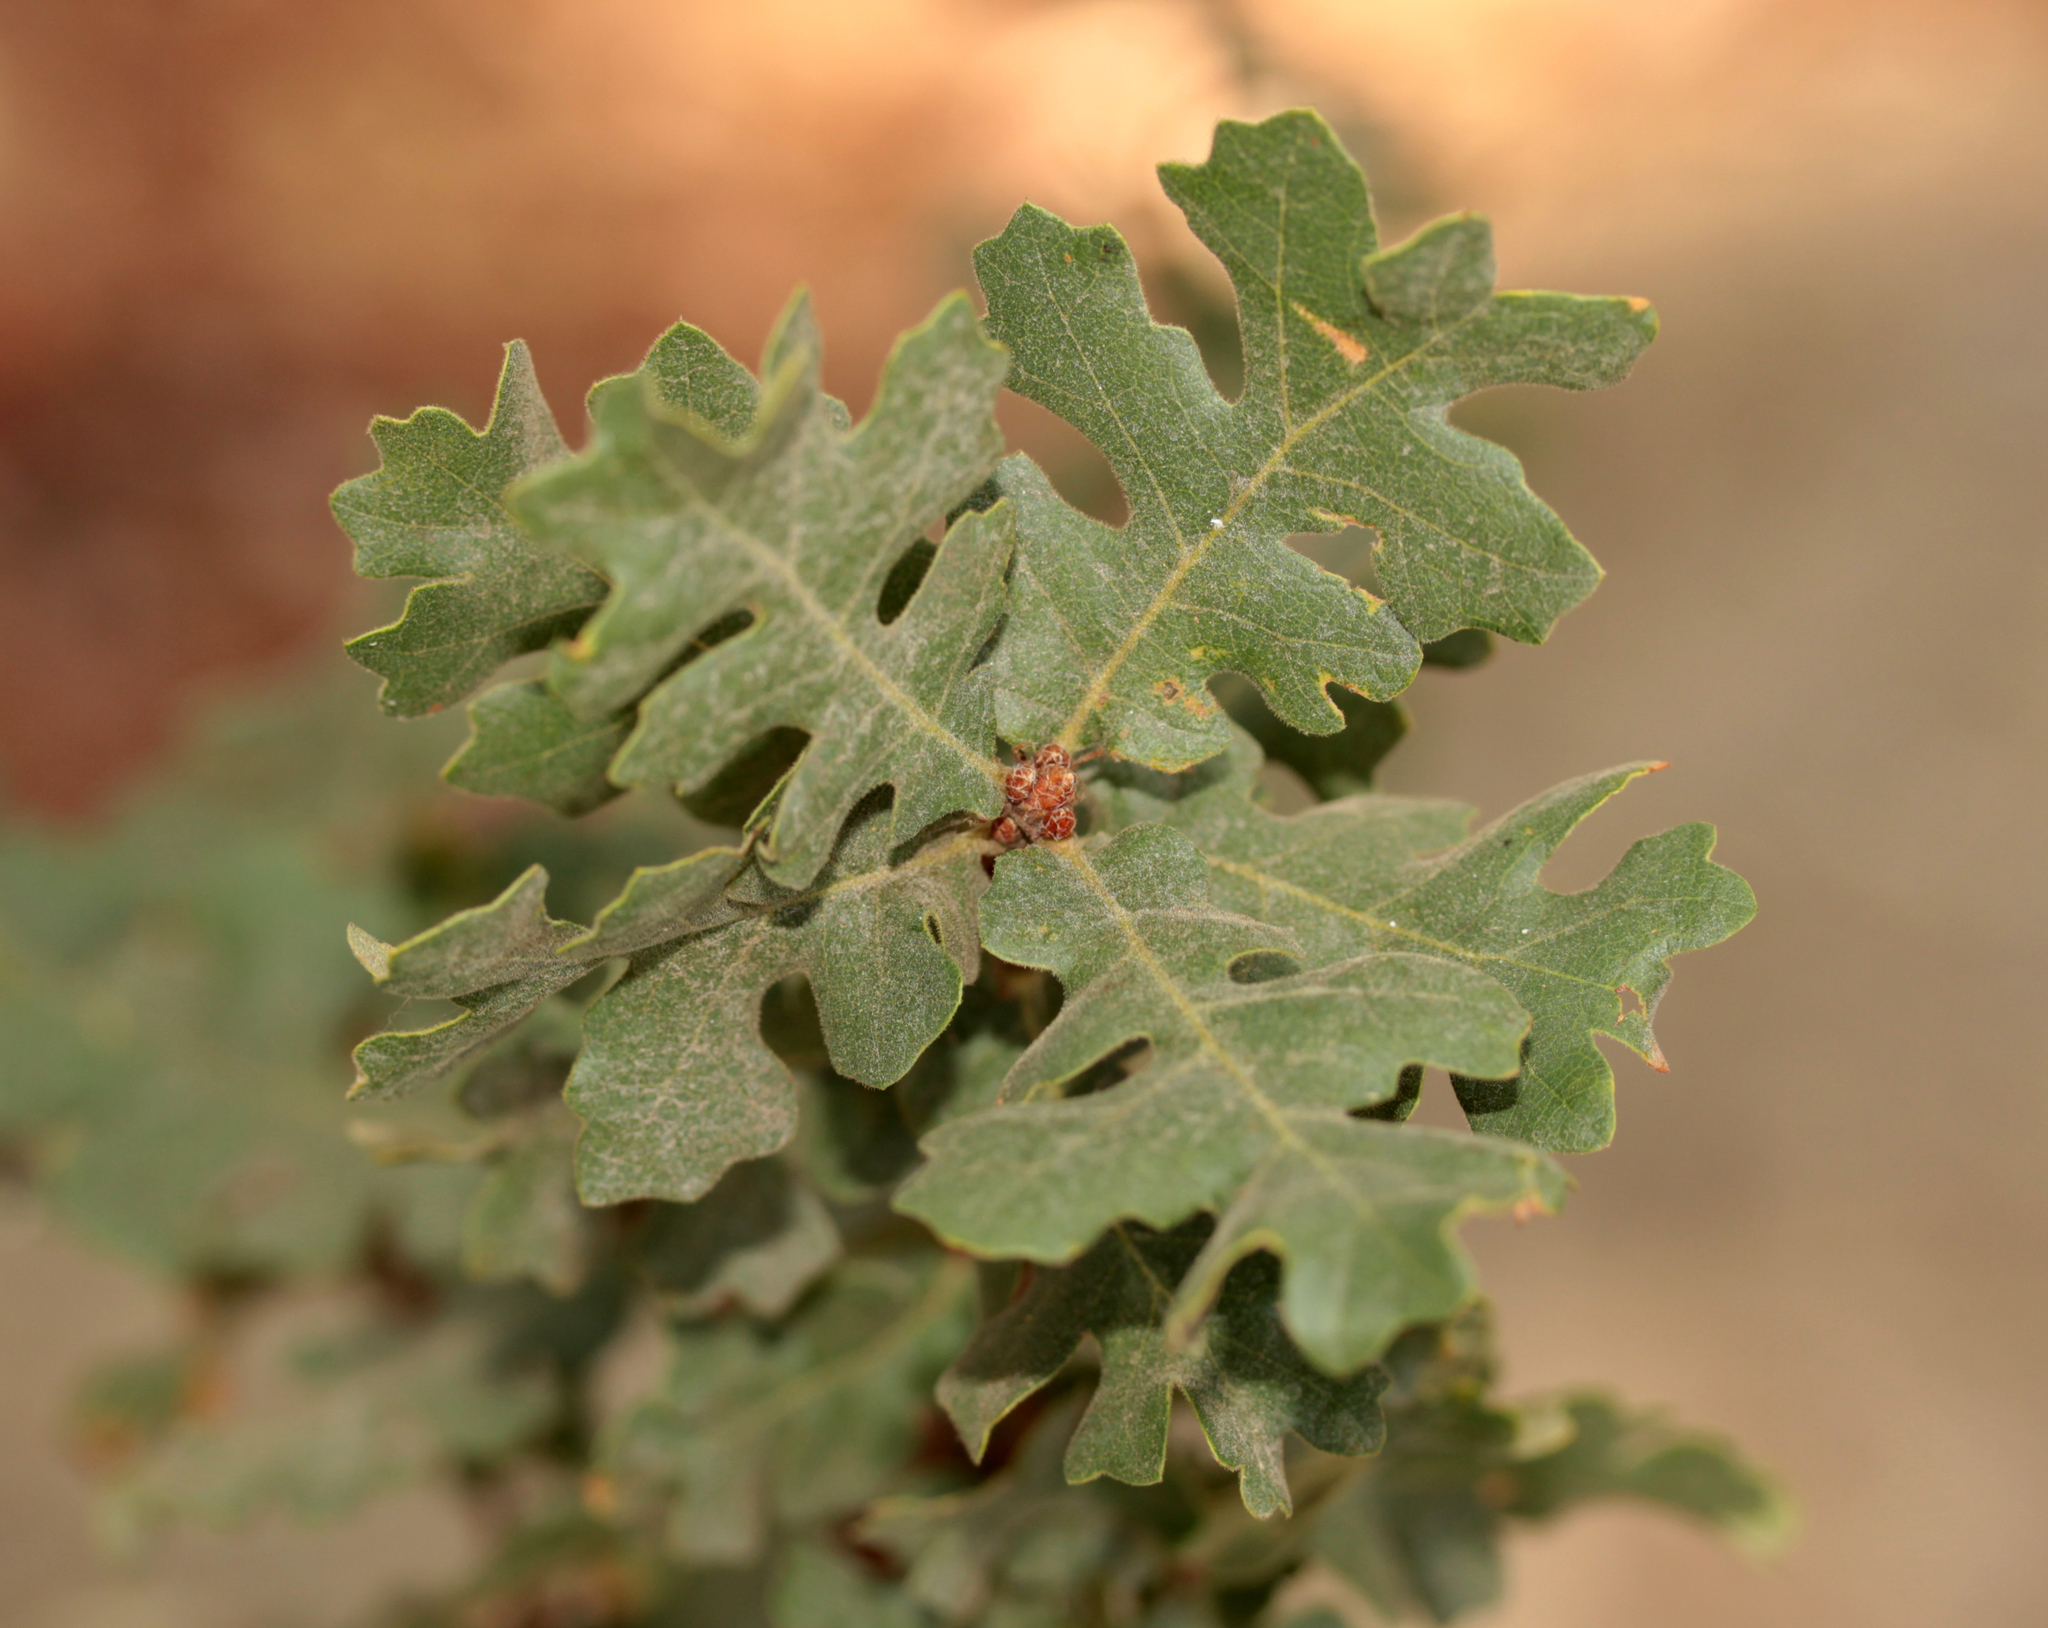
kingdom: Plantae
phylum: Tracheophyta
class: Magnoliopsida
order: Fagales
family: Fagaceae
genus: Quercus
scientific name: Quercus lobata
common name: Valley oak
